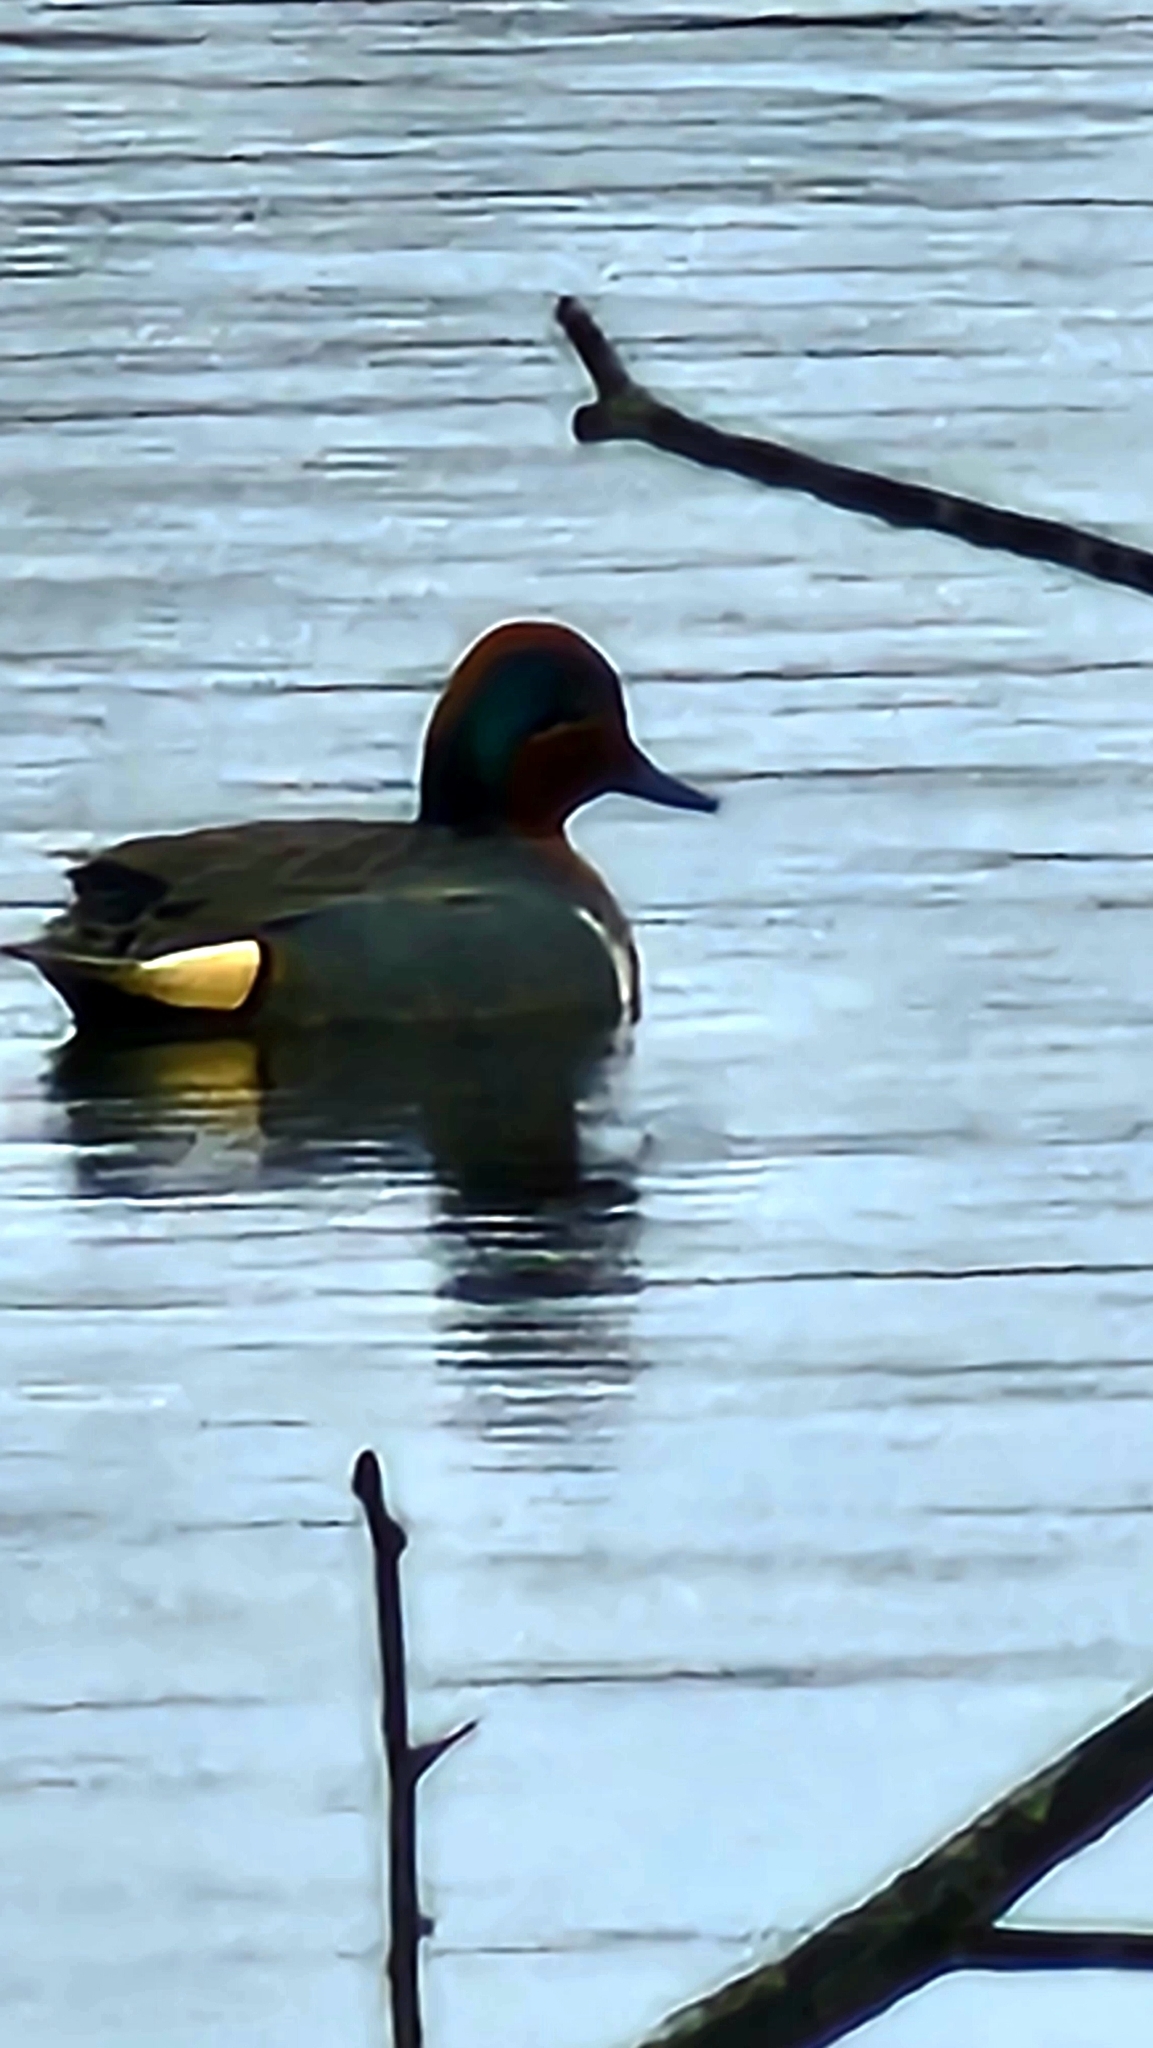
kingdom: Animalia
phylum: Chordata
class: Aves
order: Anseriformes
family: Anatidae
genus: Anas
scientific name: Anas crecca
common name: Eurasian teal
